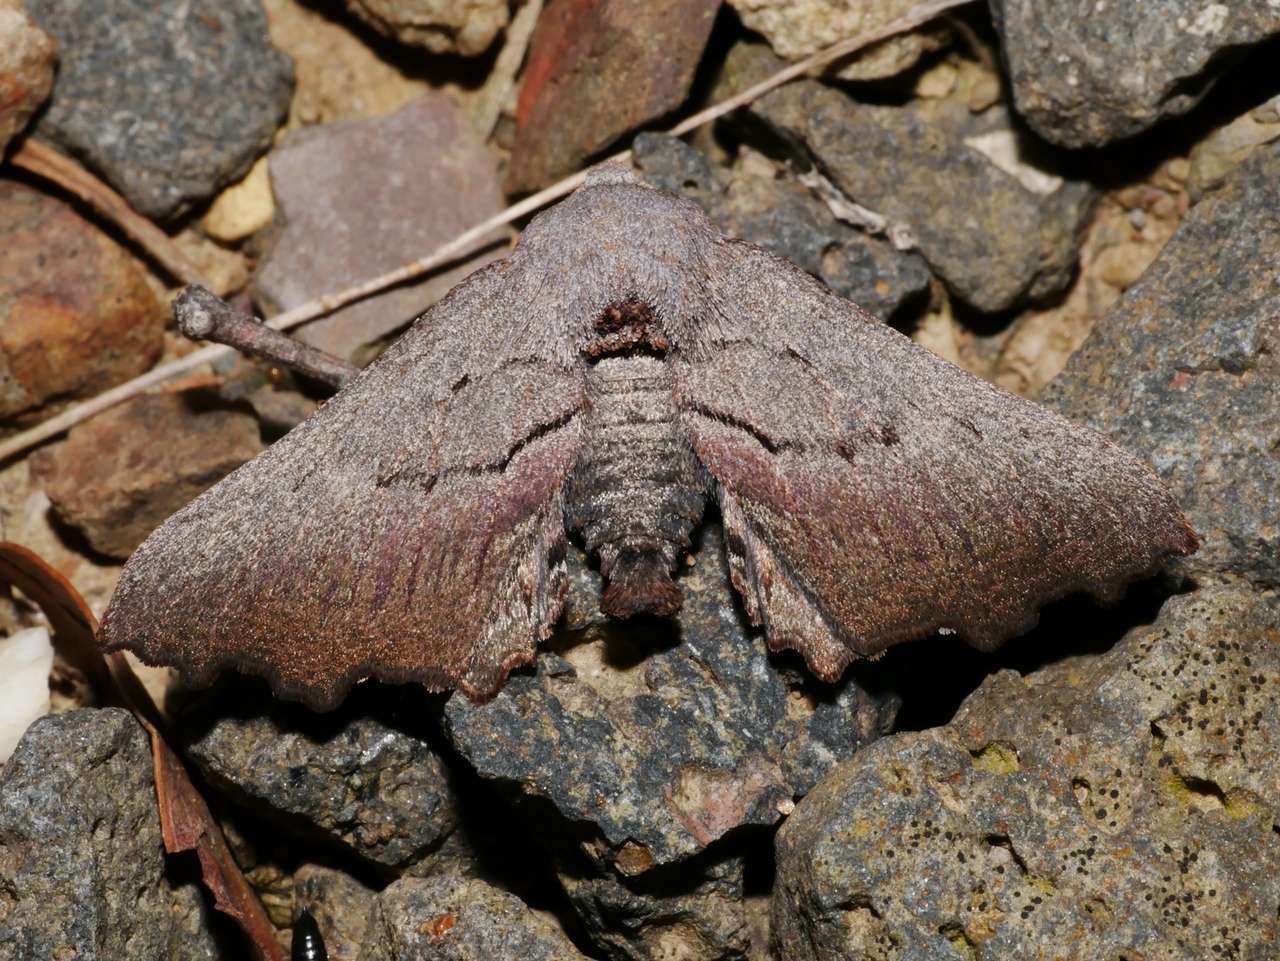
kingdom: Animalia
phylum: Arthropoda
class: Insecta
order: Lepidoptera
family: Geometridae
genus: Amphiclasta
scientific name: Amphiclasta lygaea
